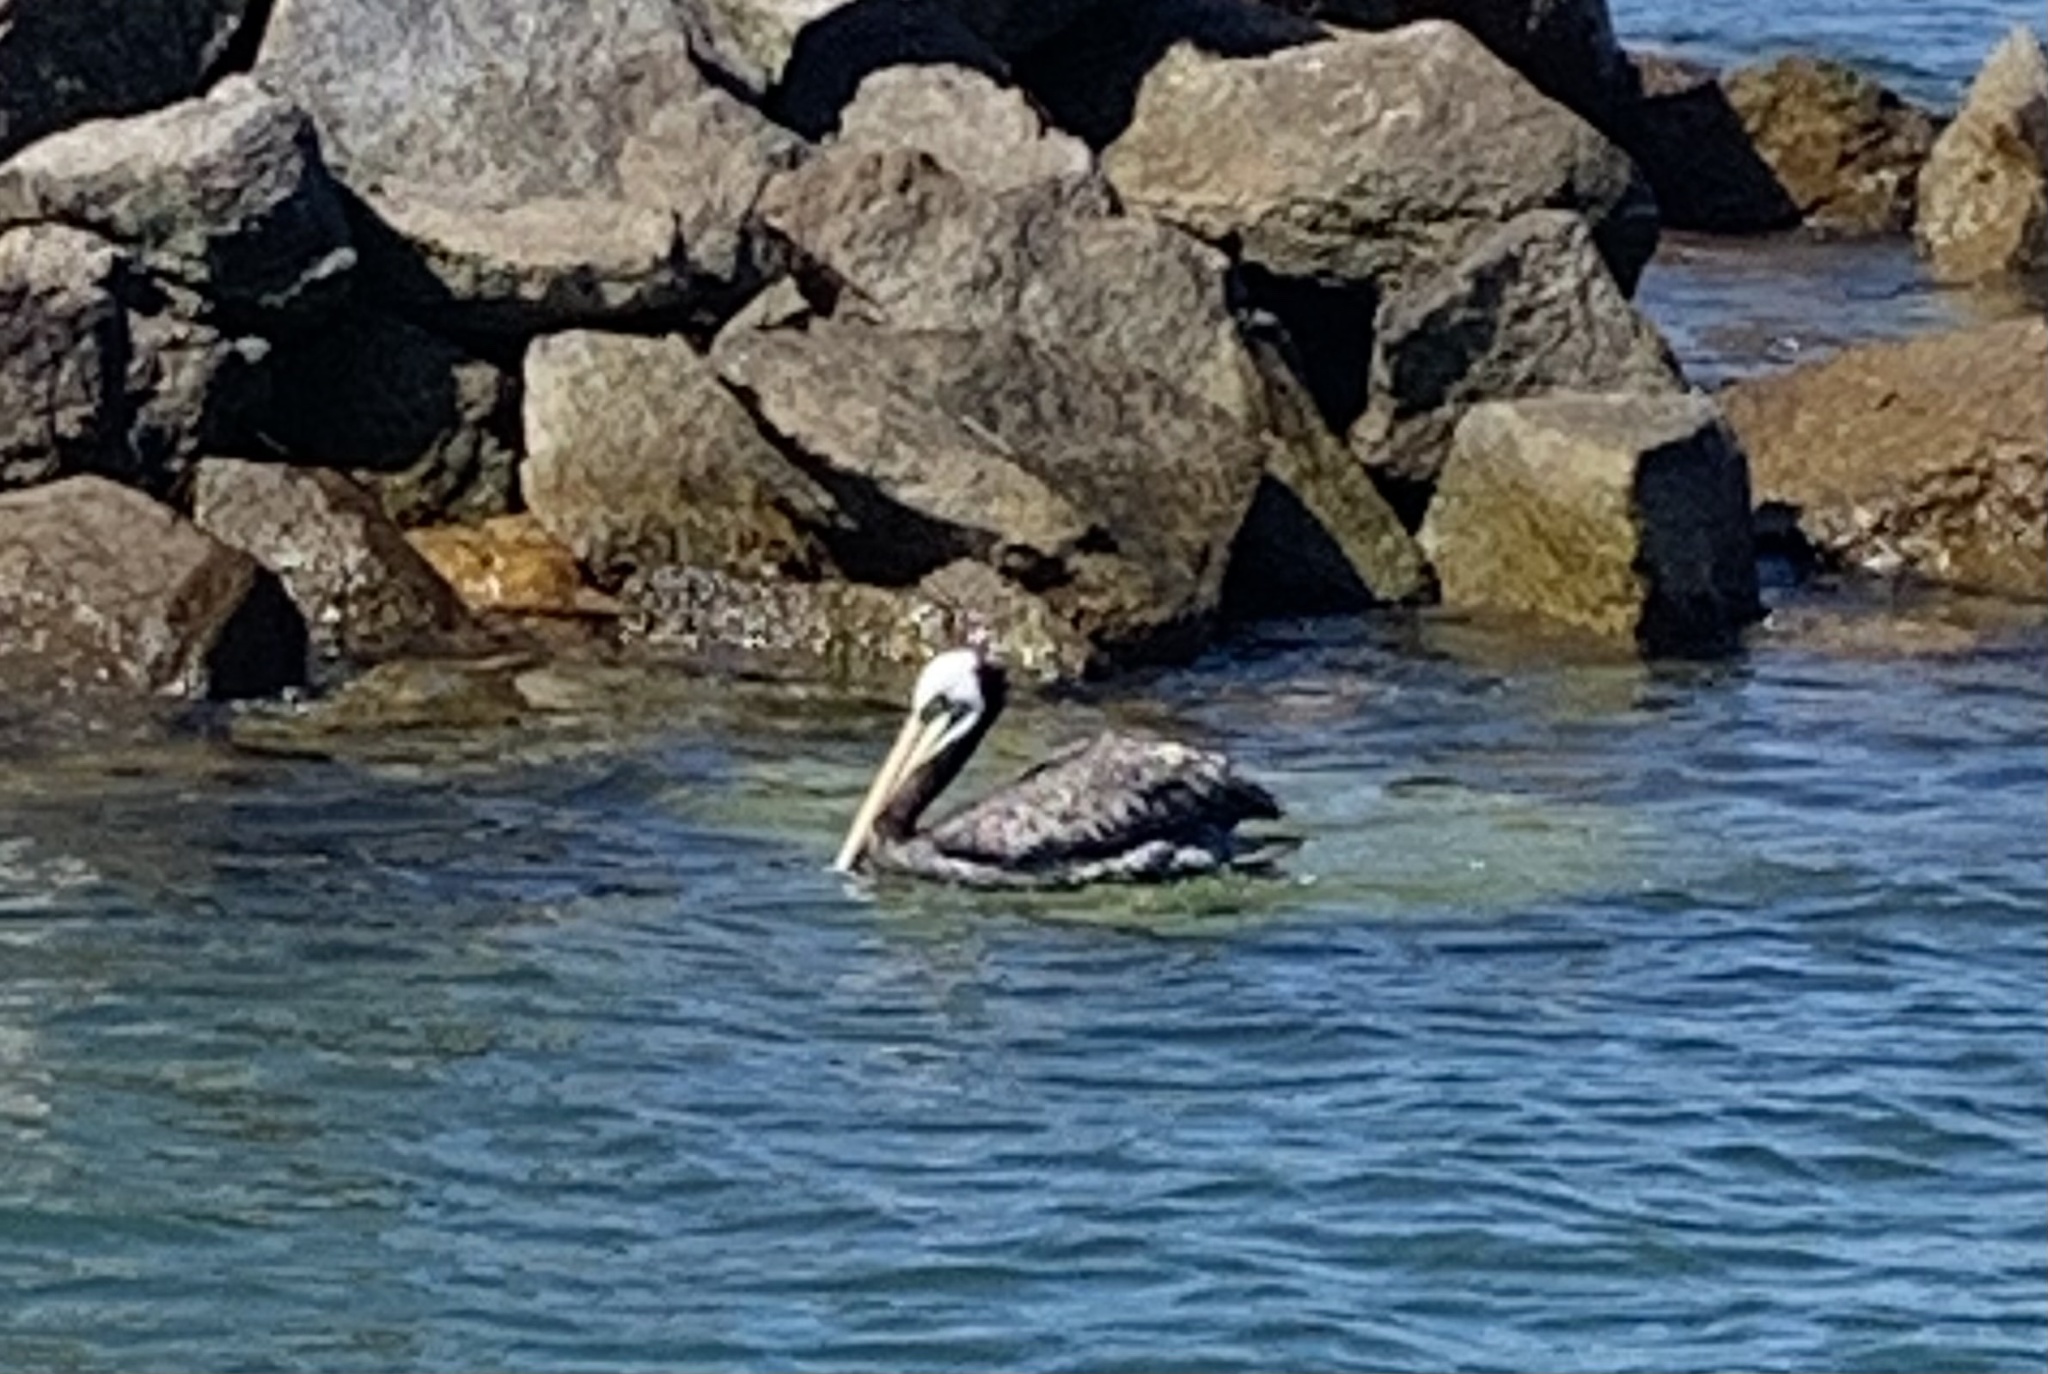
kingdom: Animalia
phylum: Chordata
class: Aves
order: Pelecaniformes
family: Pelecanidae
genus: Pelecanus
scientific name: Pelecanus thagus
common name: Peruvian pelican
